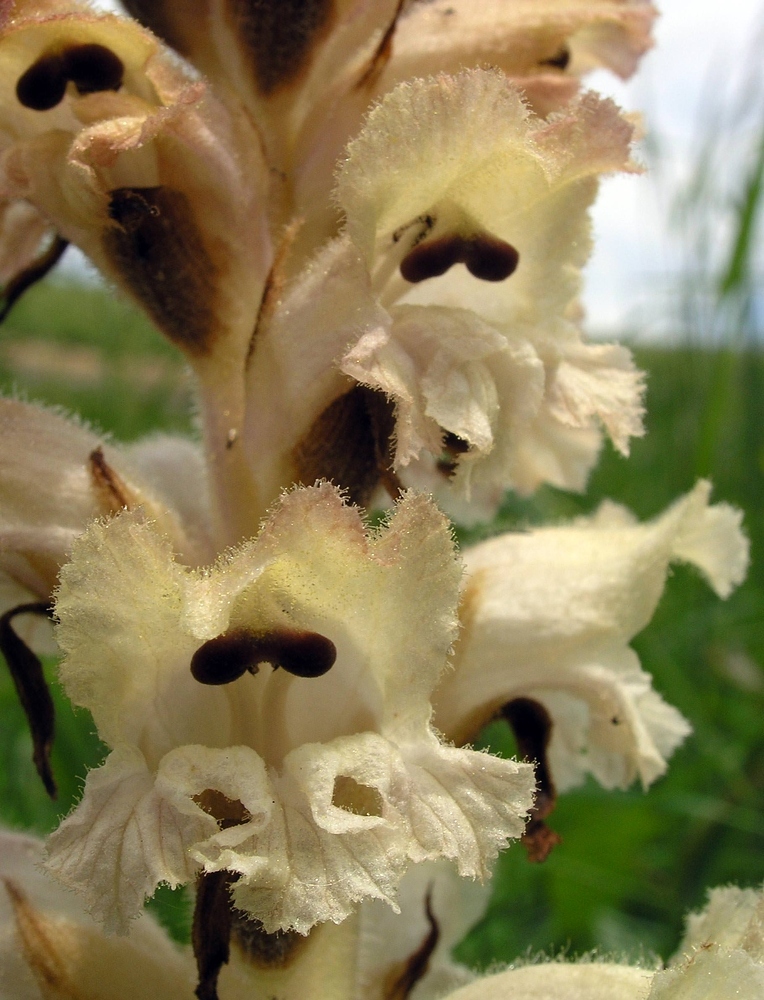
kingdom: Plantae
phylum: Tracheophyta
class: Magnoliopsida
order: Lamiales
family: Orobanchaceae
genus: Orobanche
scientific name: Orobanche caryophyllacea
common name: Bedstraw broomrape
